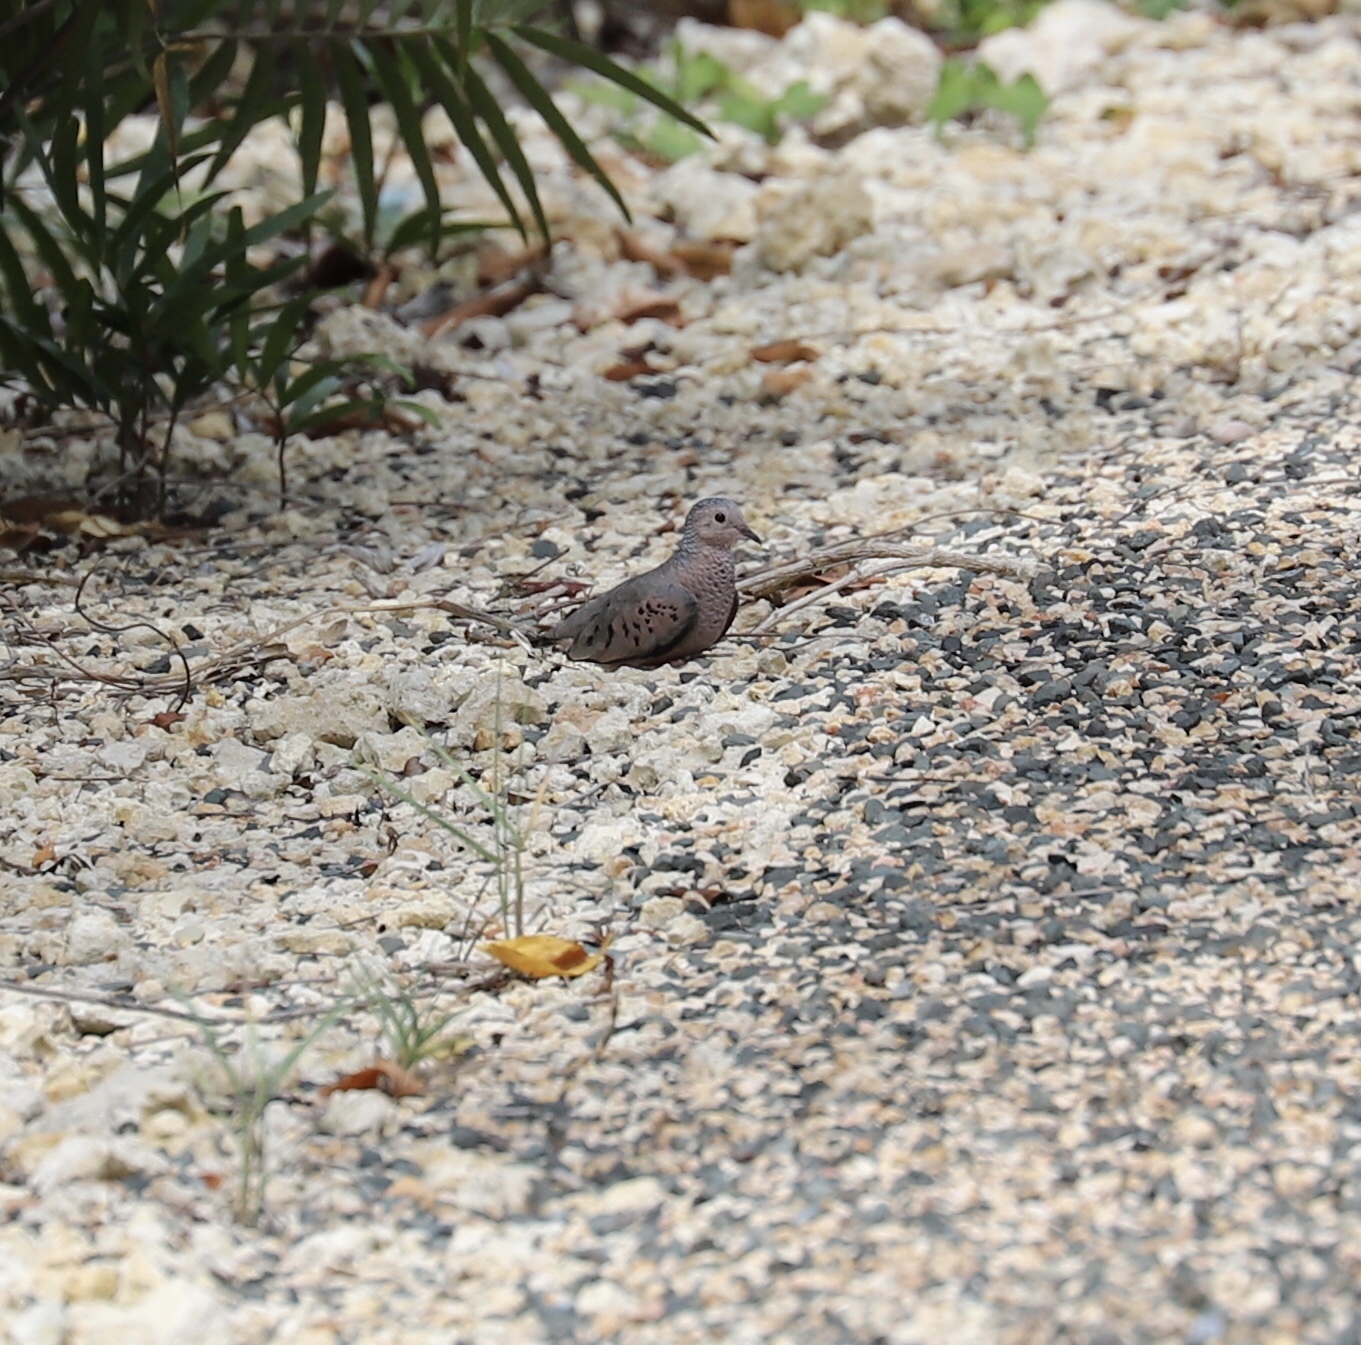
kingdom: Animalia
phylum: Chordata
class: Aves
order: Columbiformes
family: Columbidae
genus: Columbina
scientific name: Columbina passerina
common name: Common ground-dove
